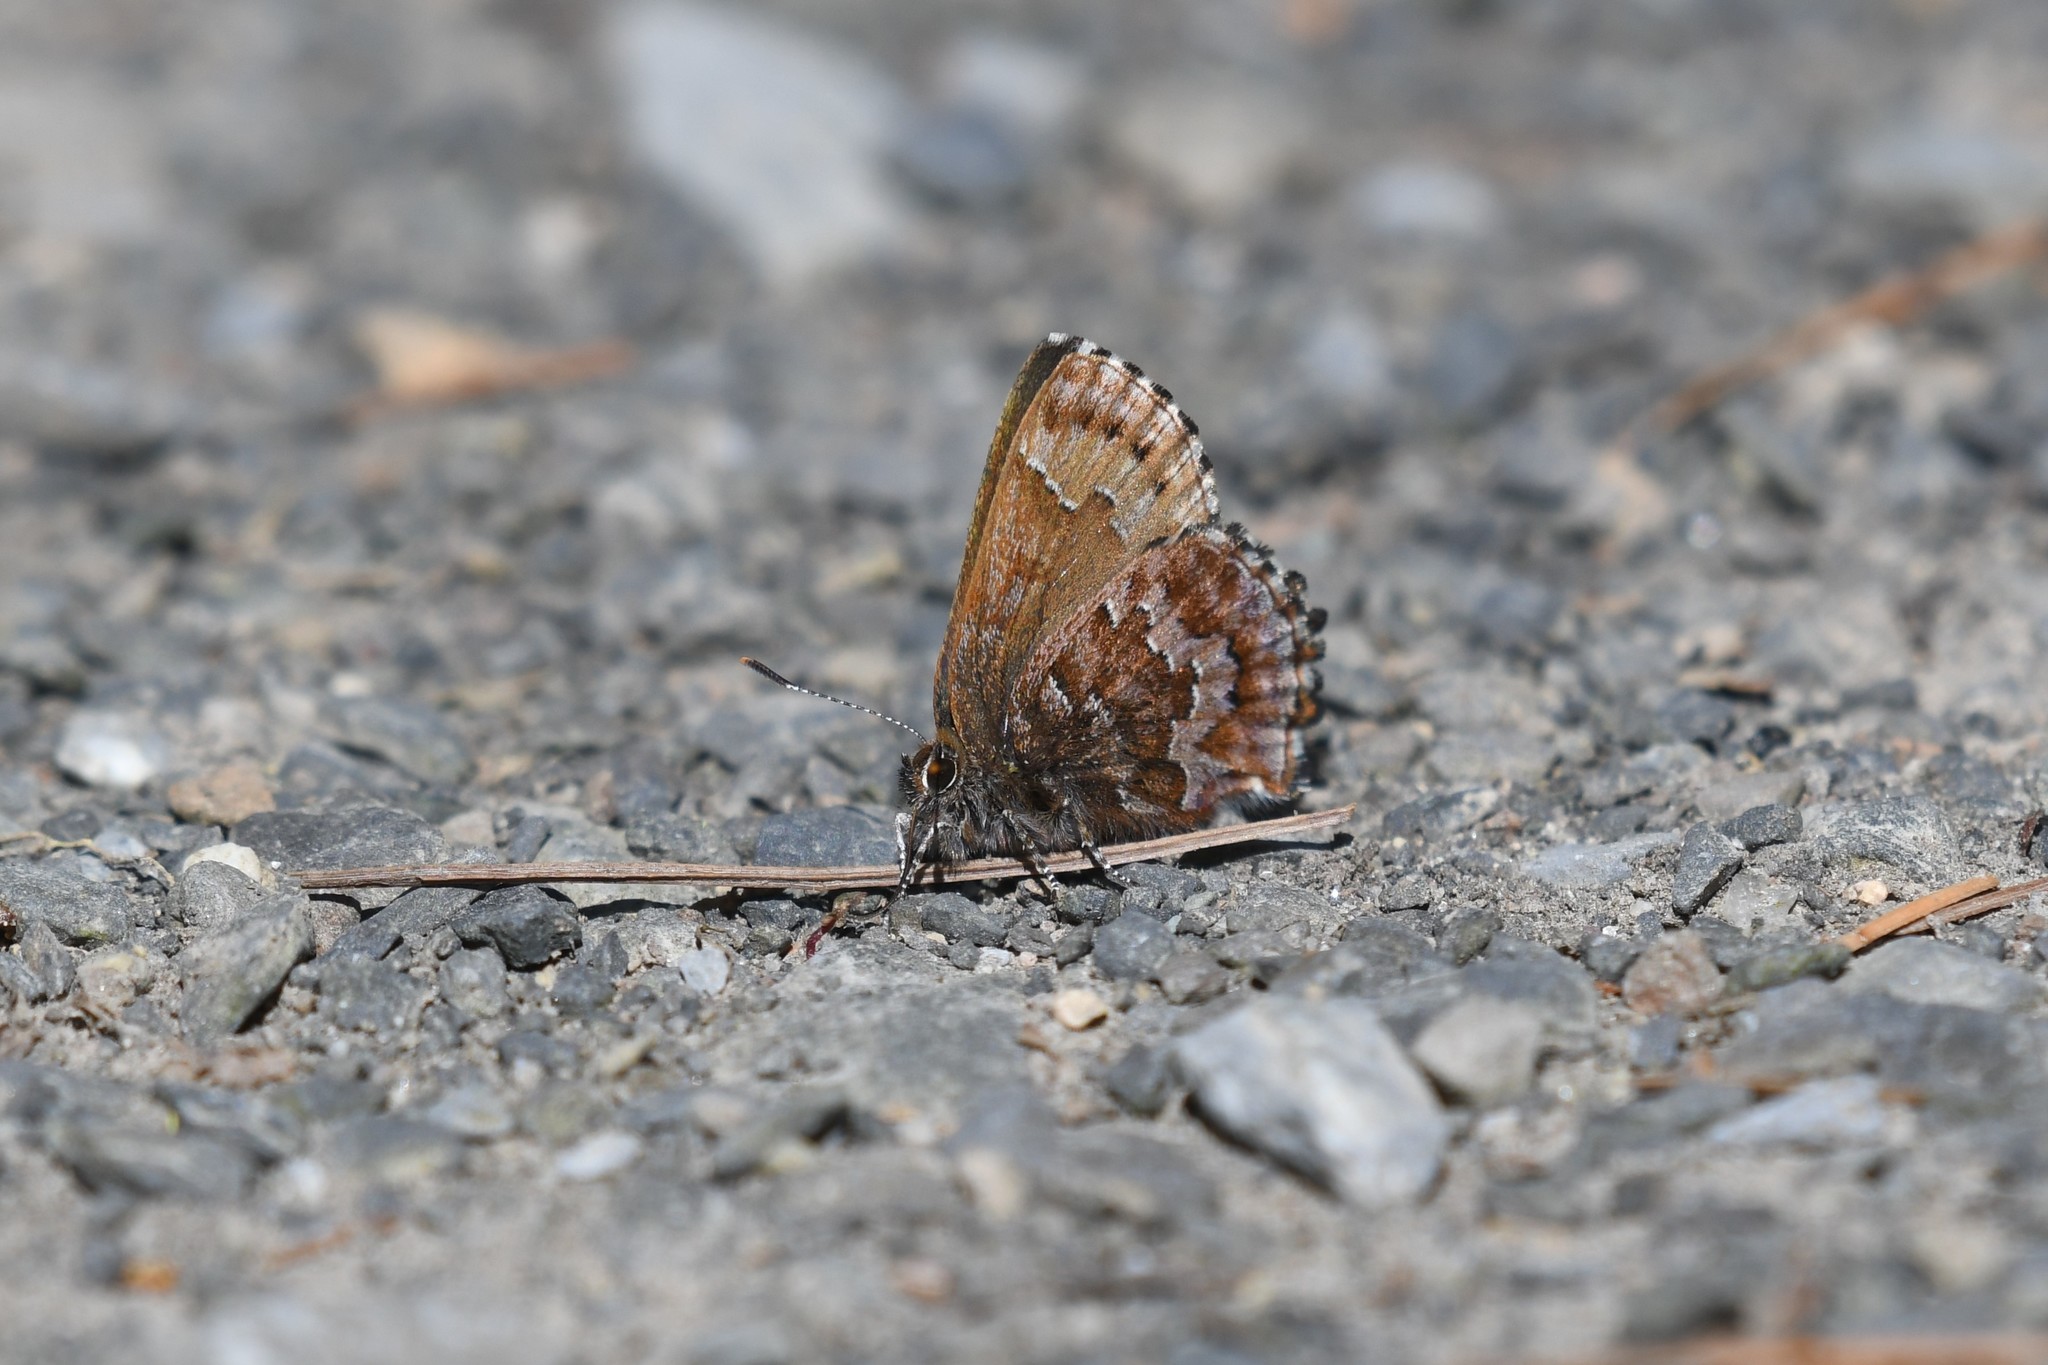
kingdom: Animalia
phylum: Arthropoda
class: Insecta
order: Lepidoptera
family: Lycaenidae
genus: Incisalia
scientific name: Incisalia niphon
